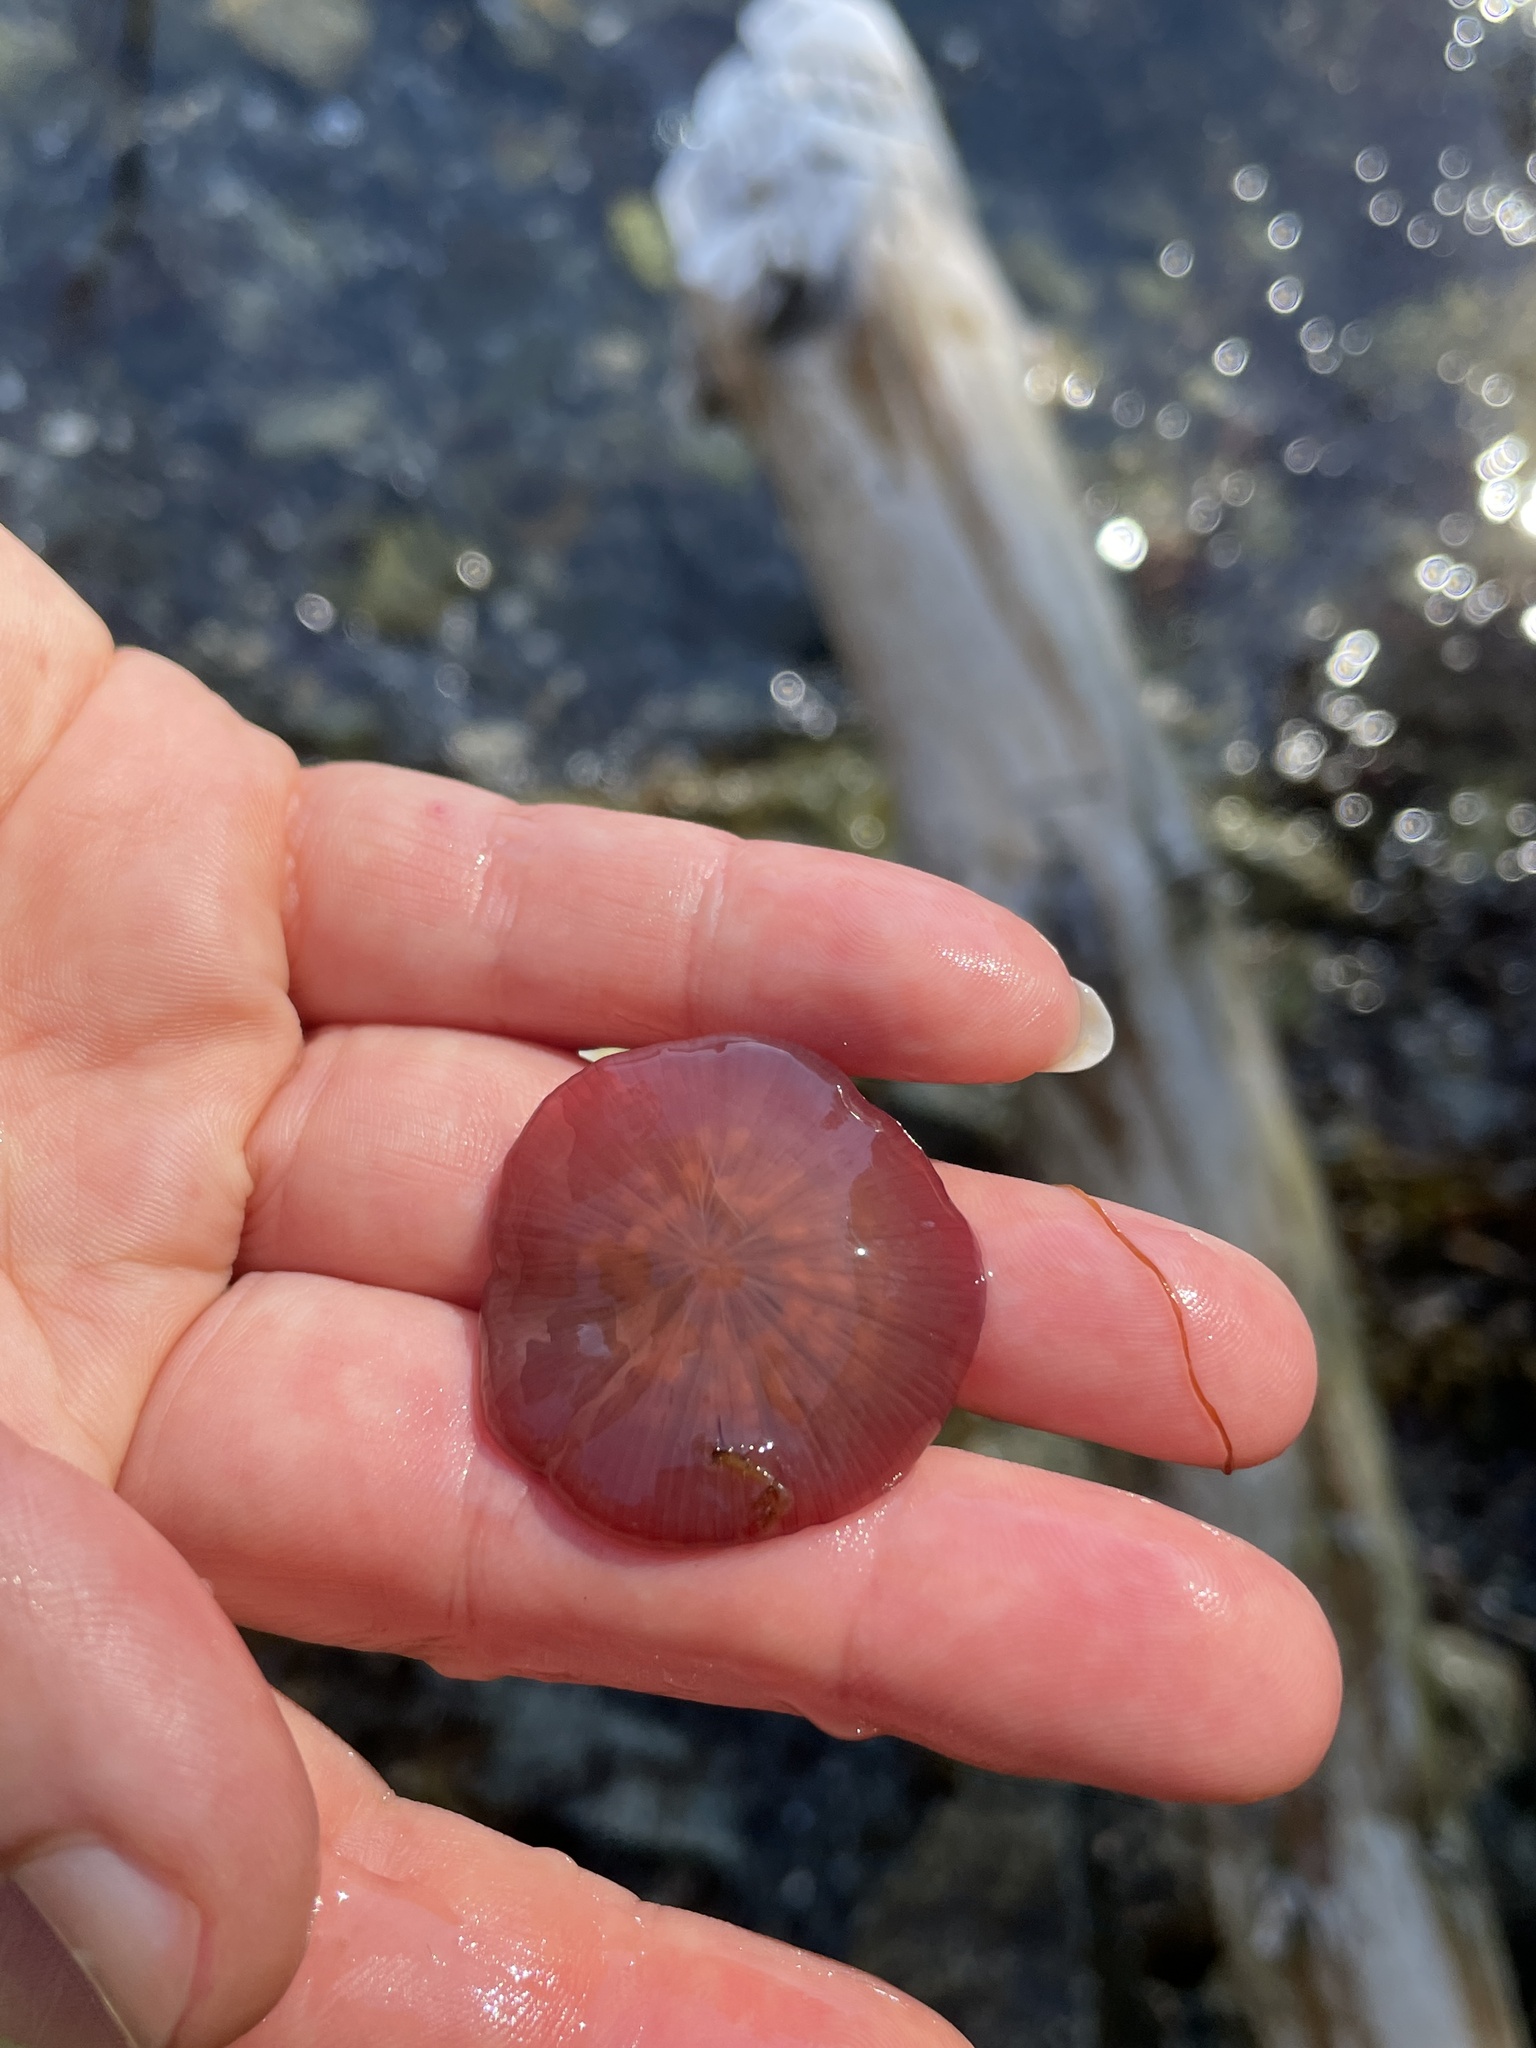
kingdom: Animalia
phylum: Cnidaria
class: Anthozoa
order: Actiniaria
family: Actiniidae
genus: Actinia
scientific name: Actinia equina
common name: Beadlet anemone
